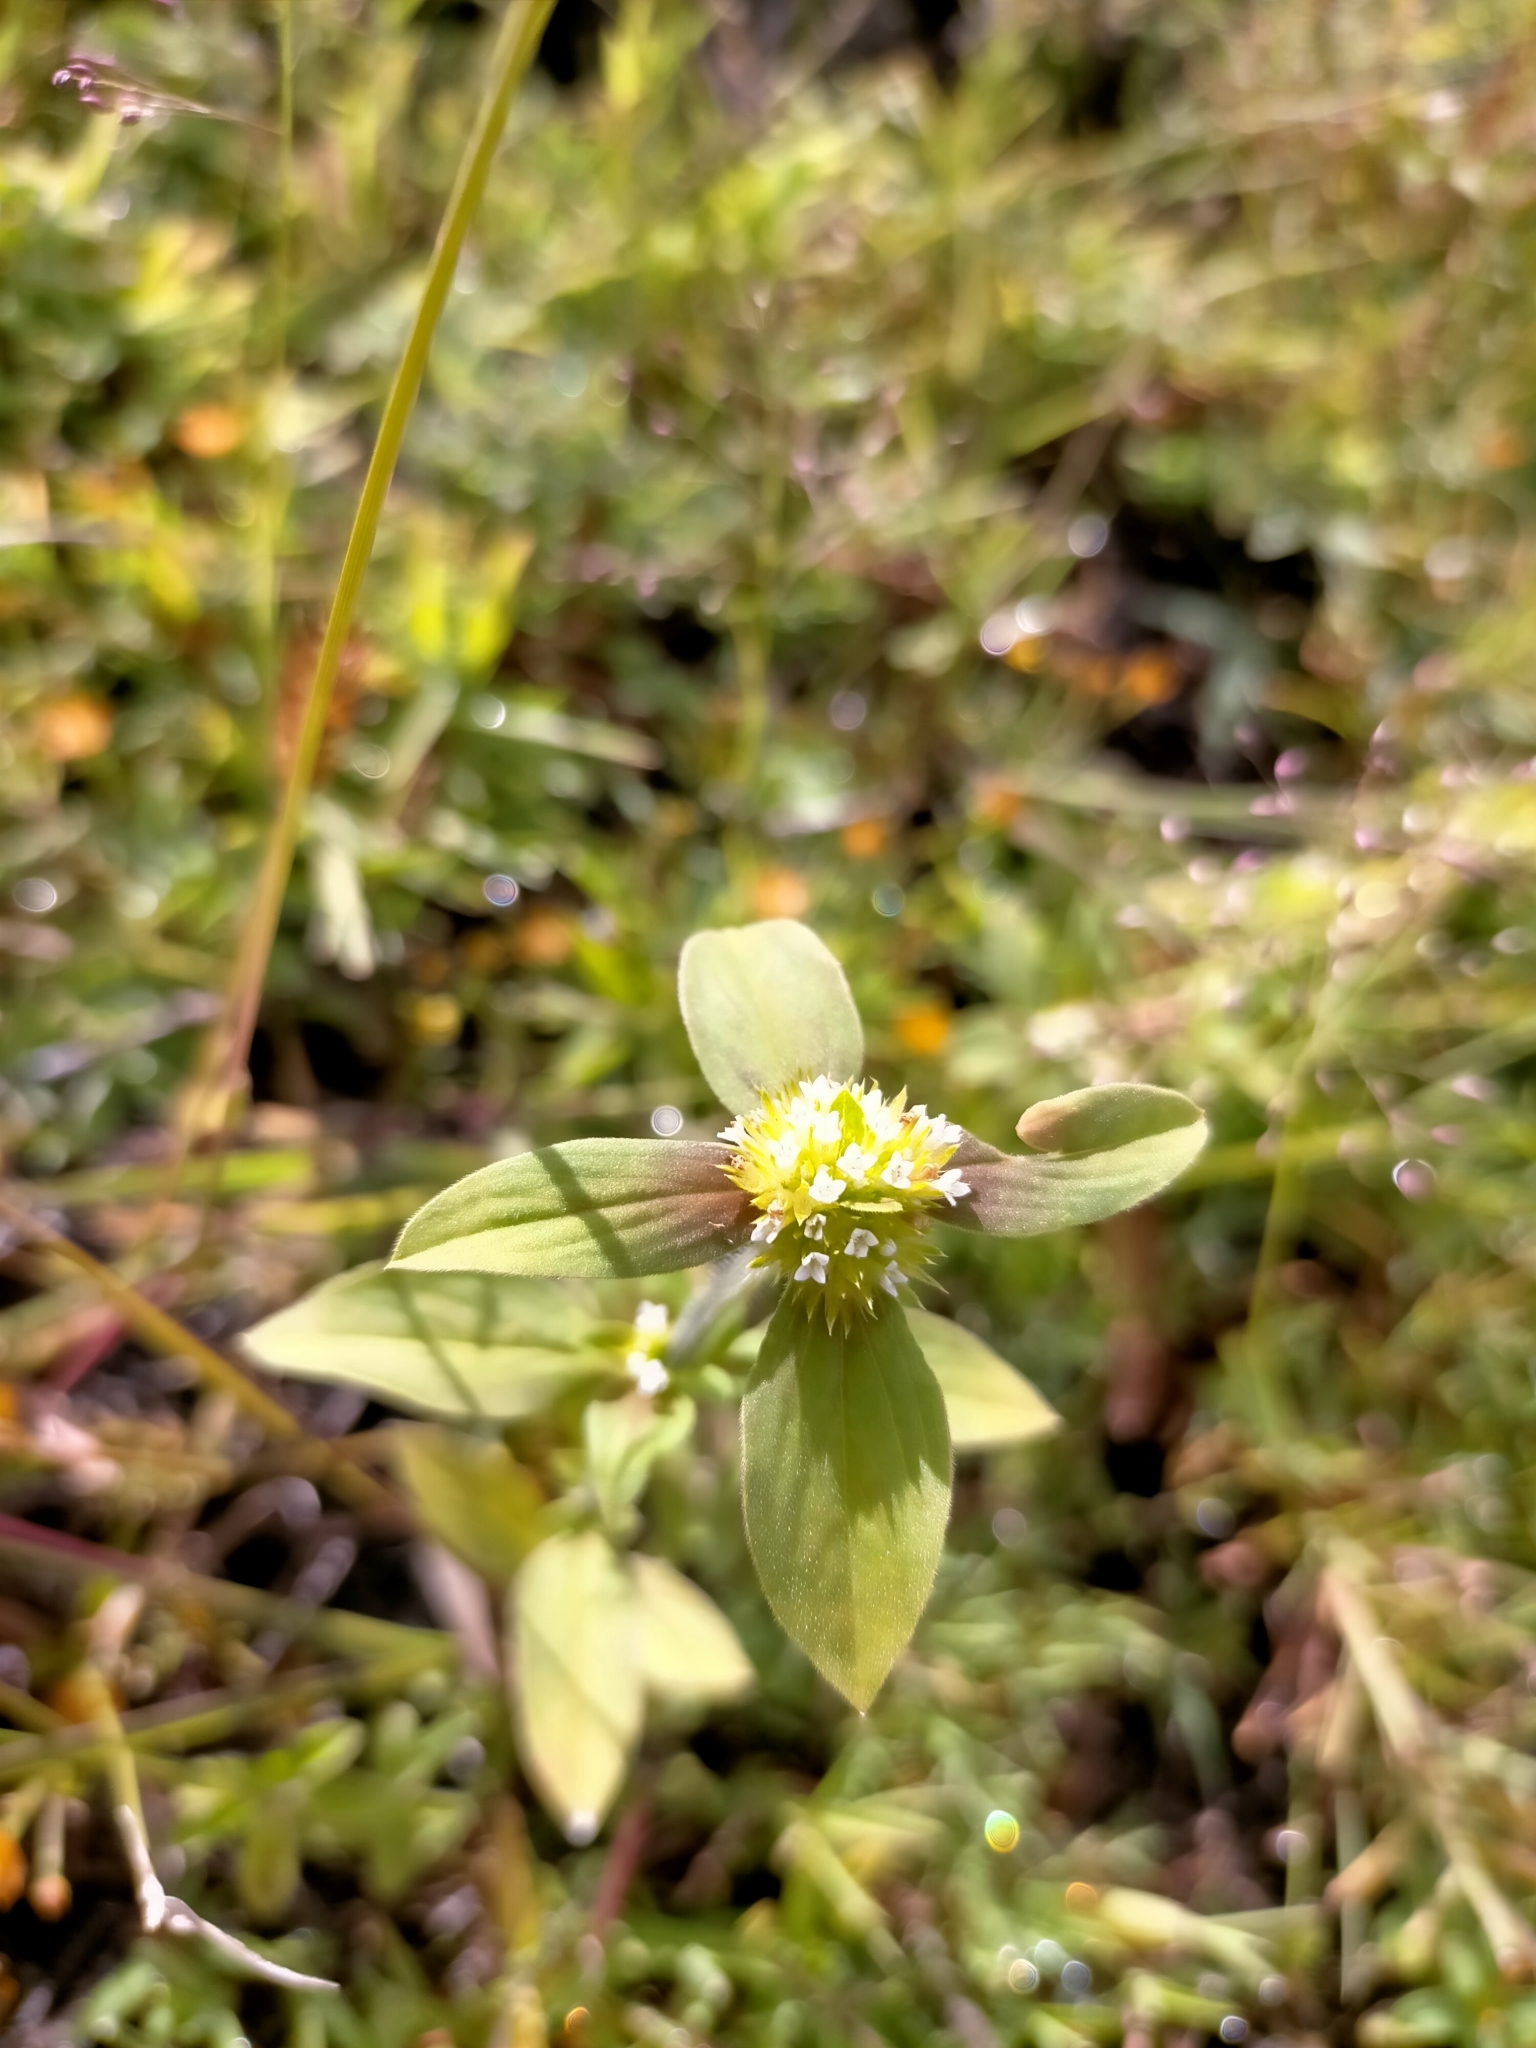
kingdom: Plantae
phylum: Tracheophyta
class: Magnoliopsida
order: Gentianales
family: Rubiaceae
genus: Spermacoce
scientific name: Spermacoce verticillata
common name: Shrubby false buttonweed
